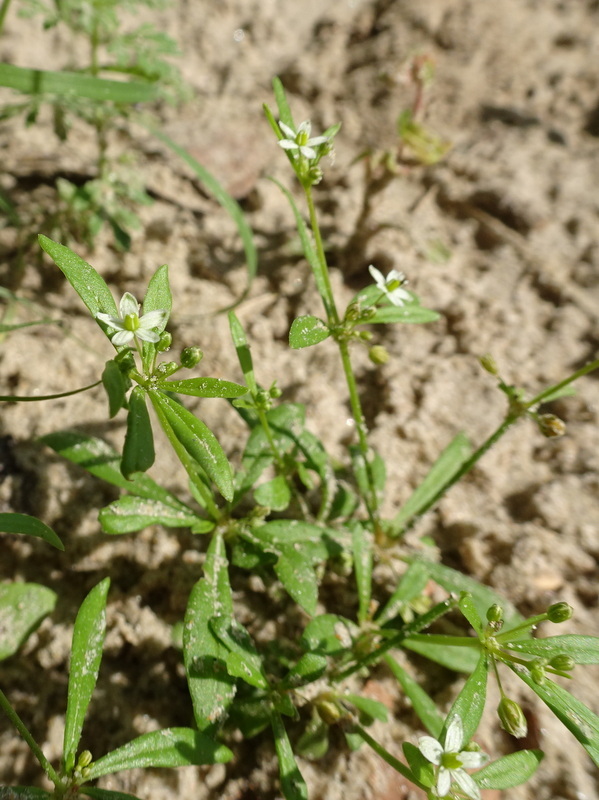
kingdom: Plantae
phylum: Tracheophyta
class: Magnoliopsida
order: Caryophyllales
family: Molluginaceae
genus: Mollugo
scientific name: Mollugo verticillata
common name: Green carpetweed
